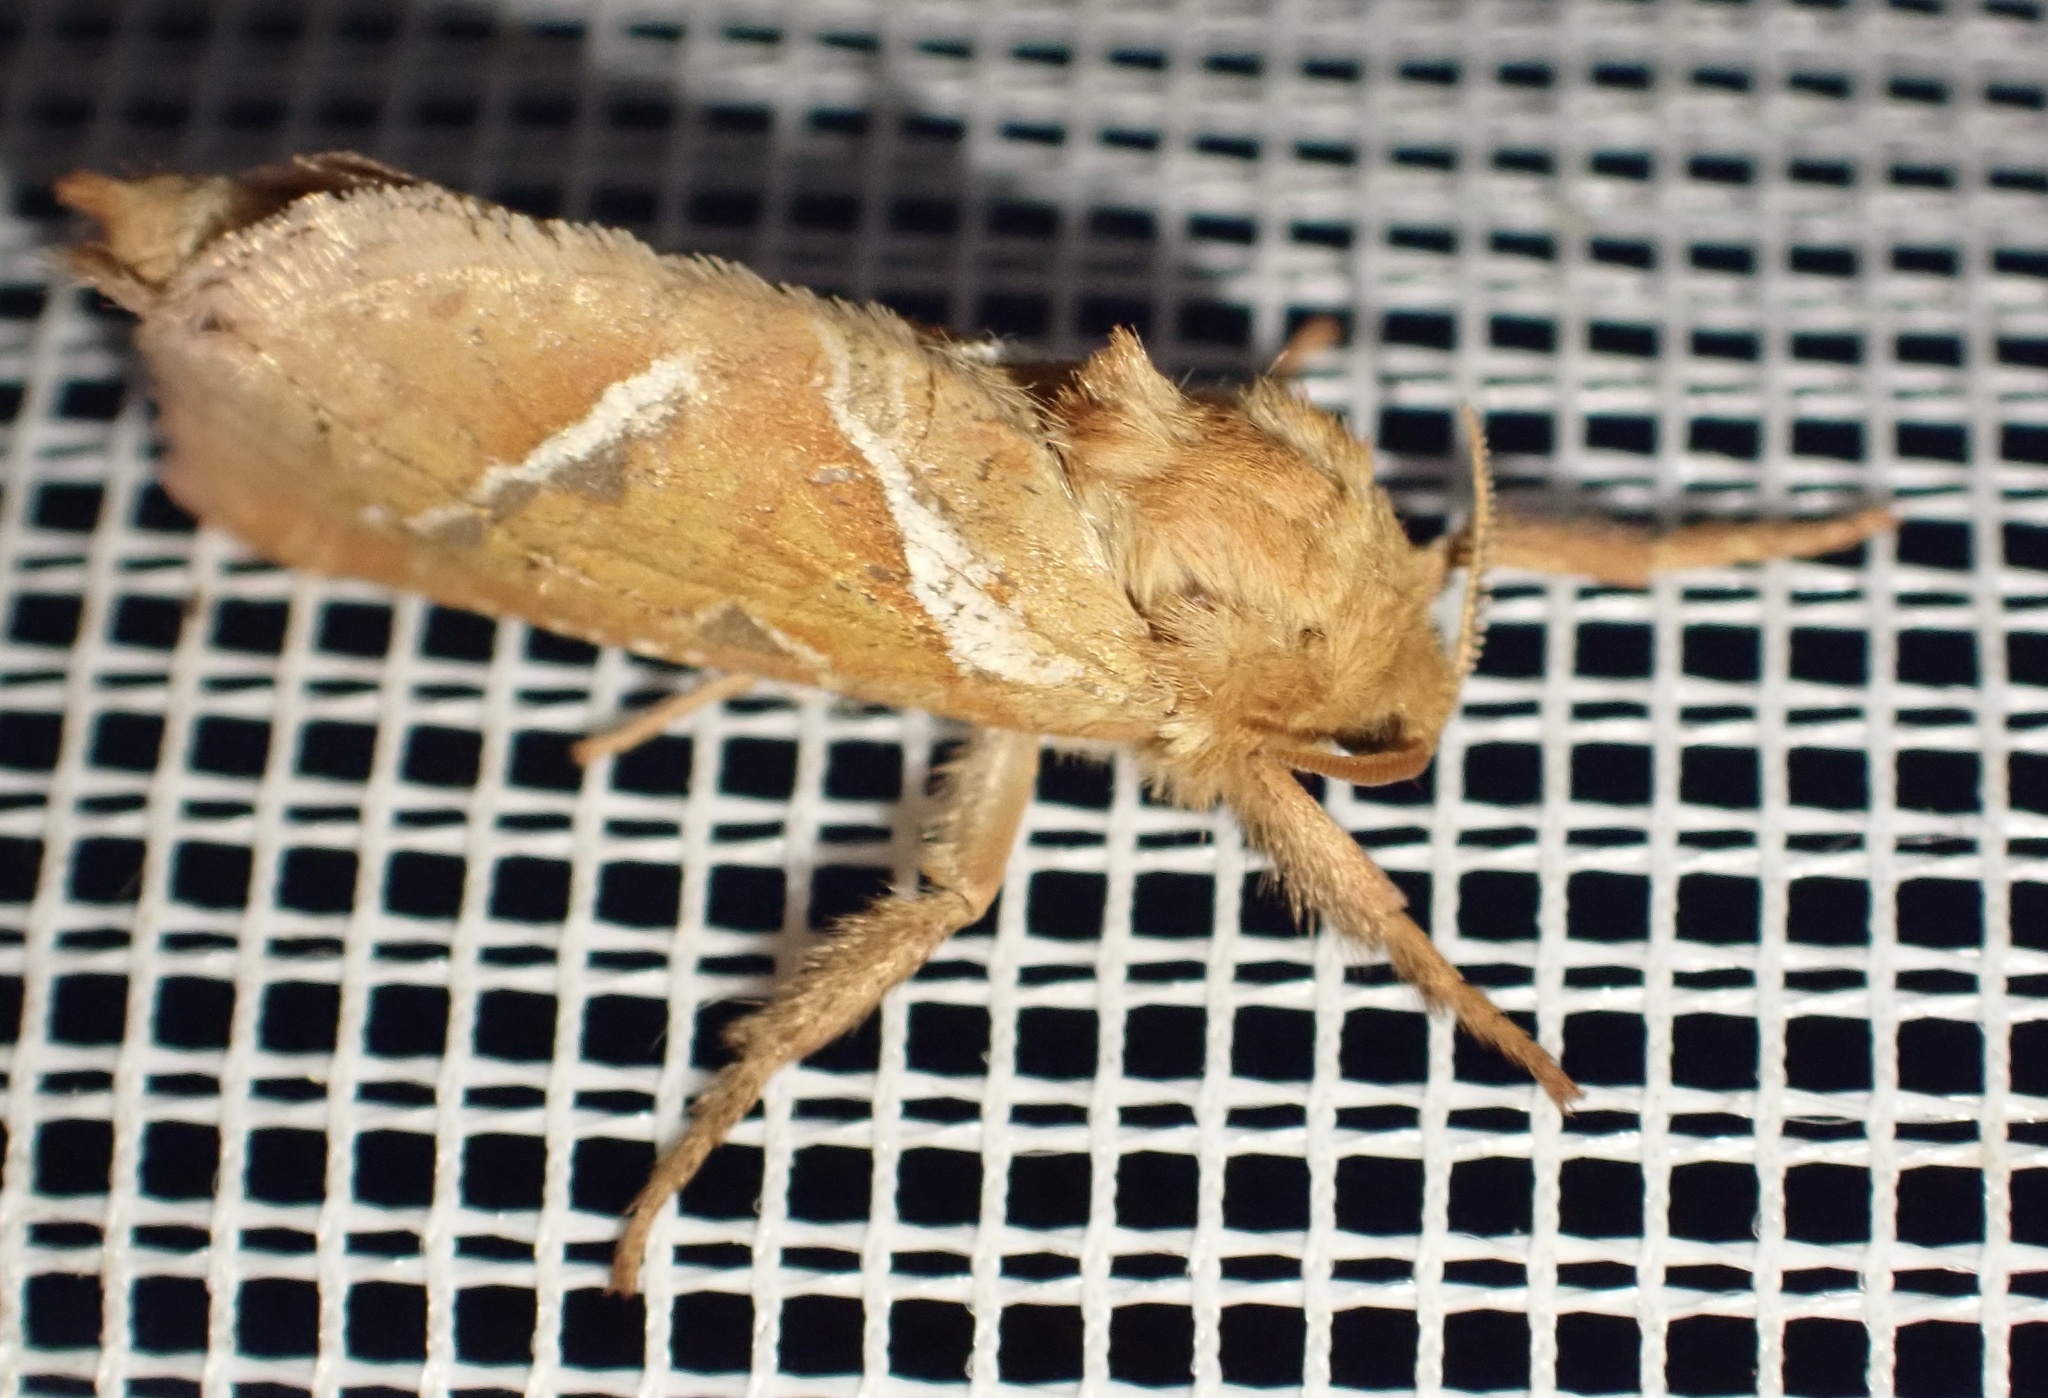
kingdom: Animalia
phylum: Arthropoda
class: Insecta
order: Lepidoptera
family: Hepialidae
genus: Triodia
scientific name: Triodia sylvina
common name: Orange swift
